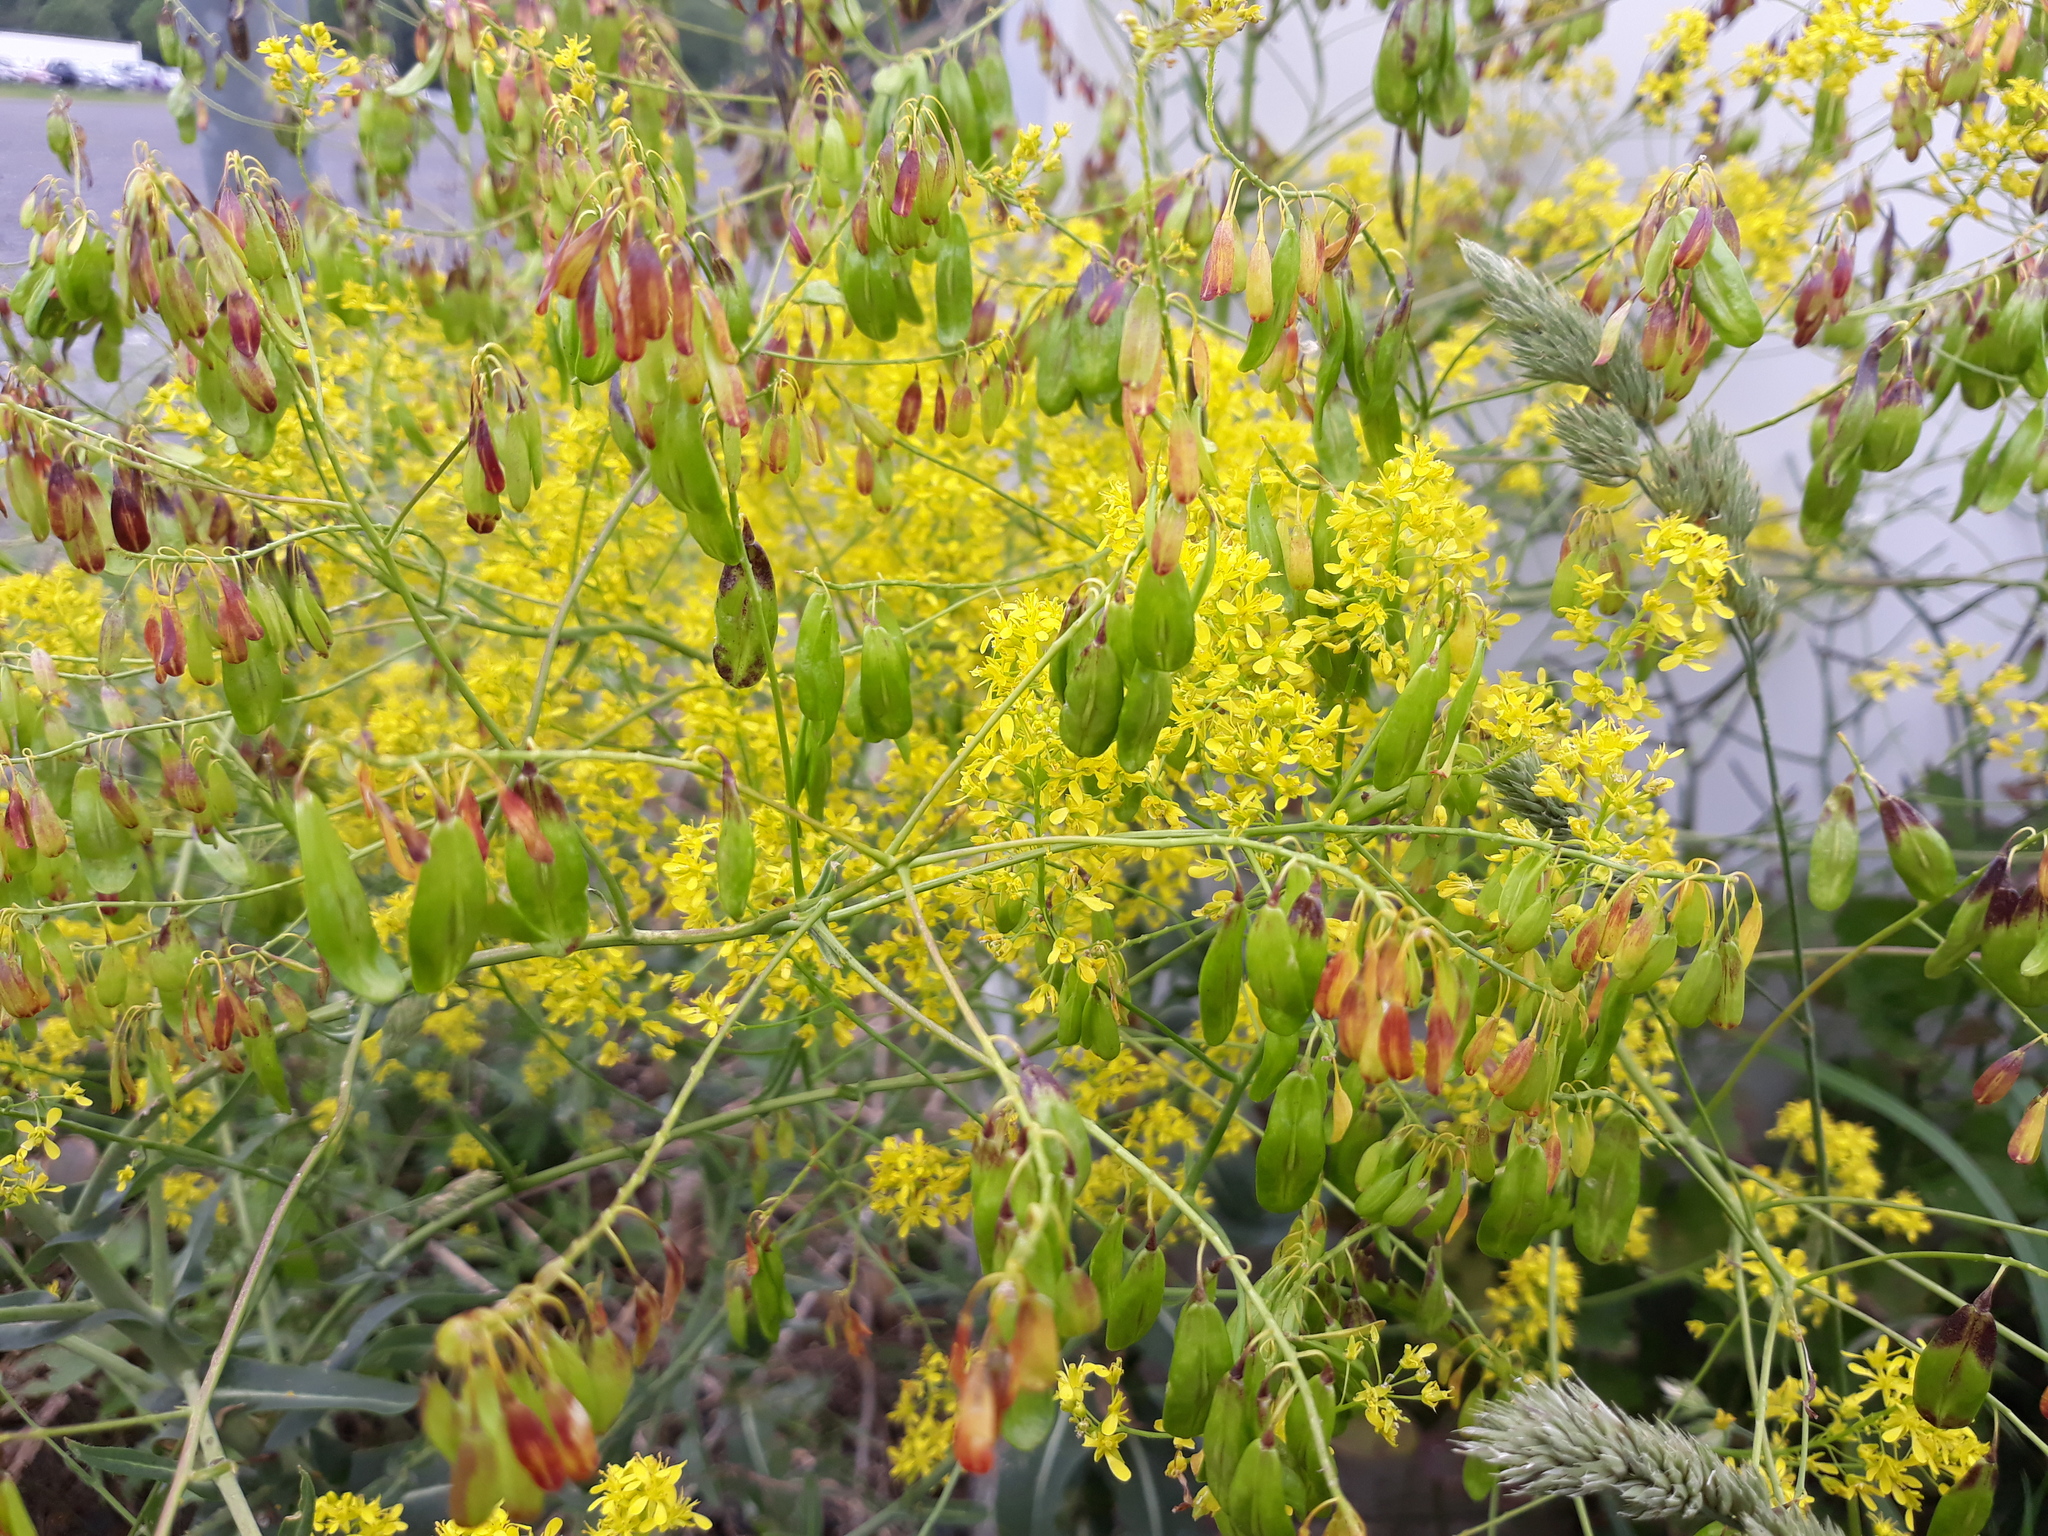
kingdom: Plantae
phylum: Tracheophyta
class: Magnoliopsida
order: Brassicales
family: Brassicaceae
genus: Isatis
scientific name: Isatis tinctoria
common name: Woad
